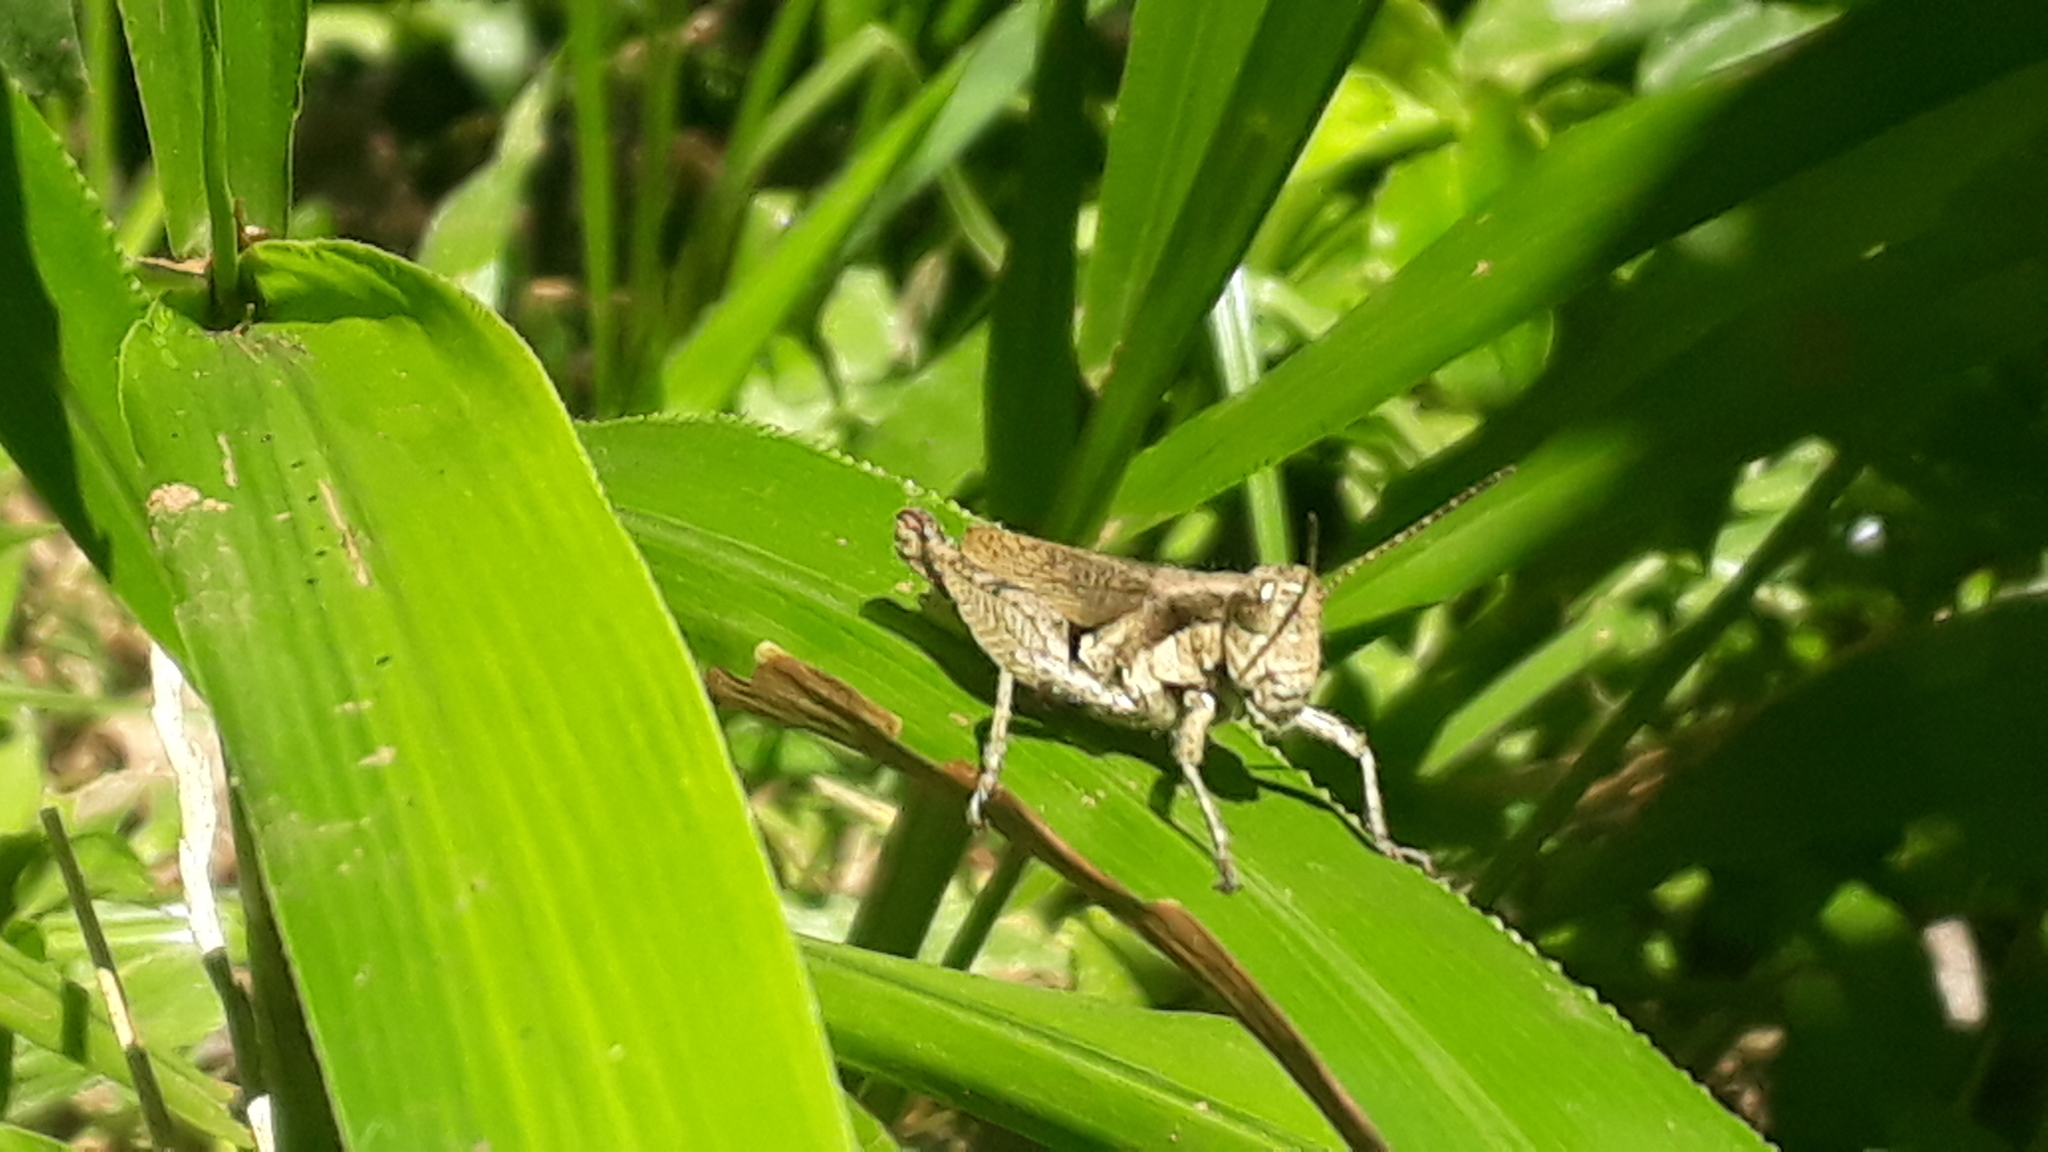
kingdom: Animalia
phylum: Arthropoda
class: Insecta
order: Orthoptera
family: Acrididae
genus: Ronderosia
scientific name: Ronderosia bergii
